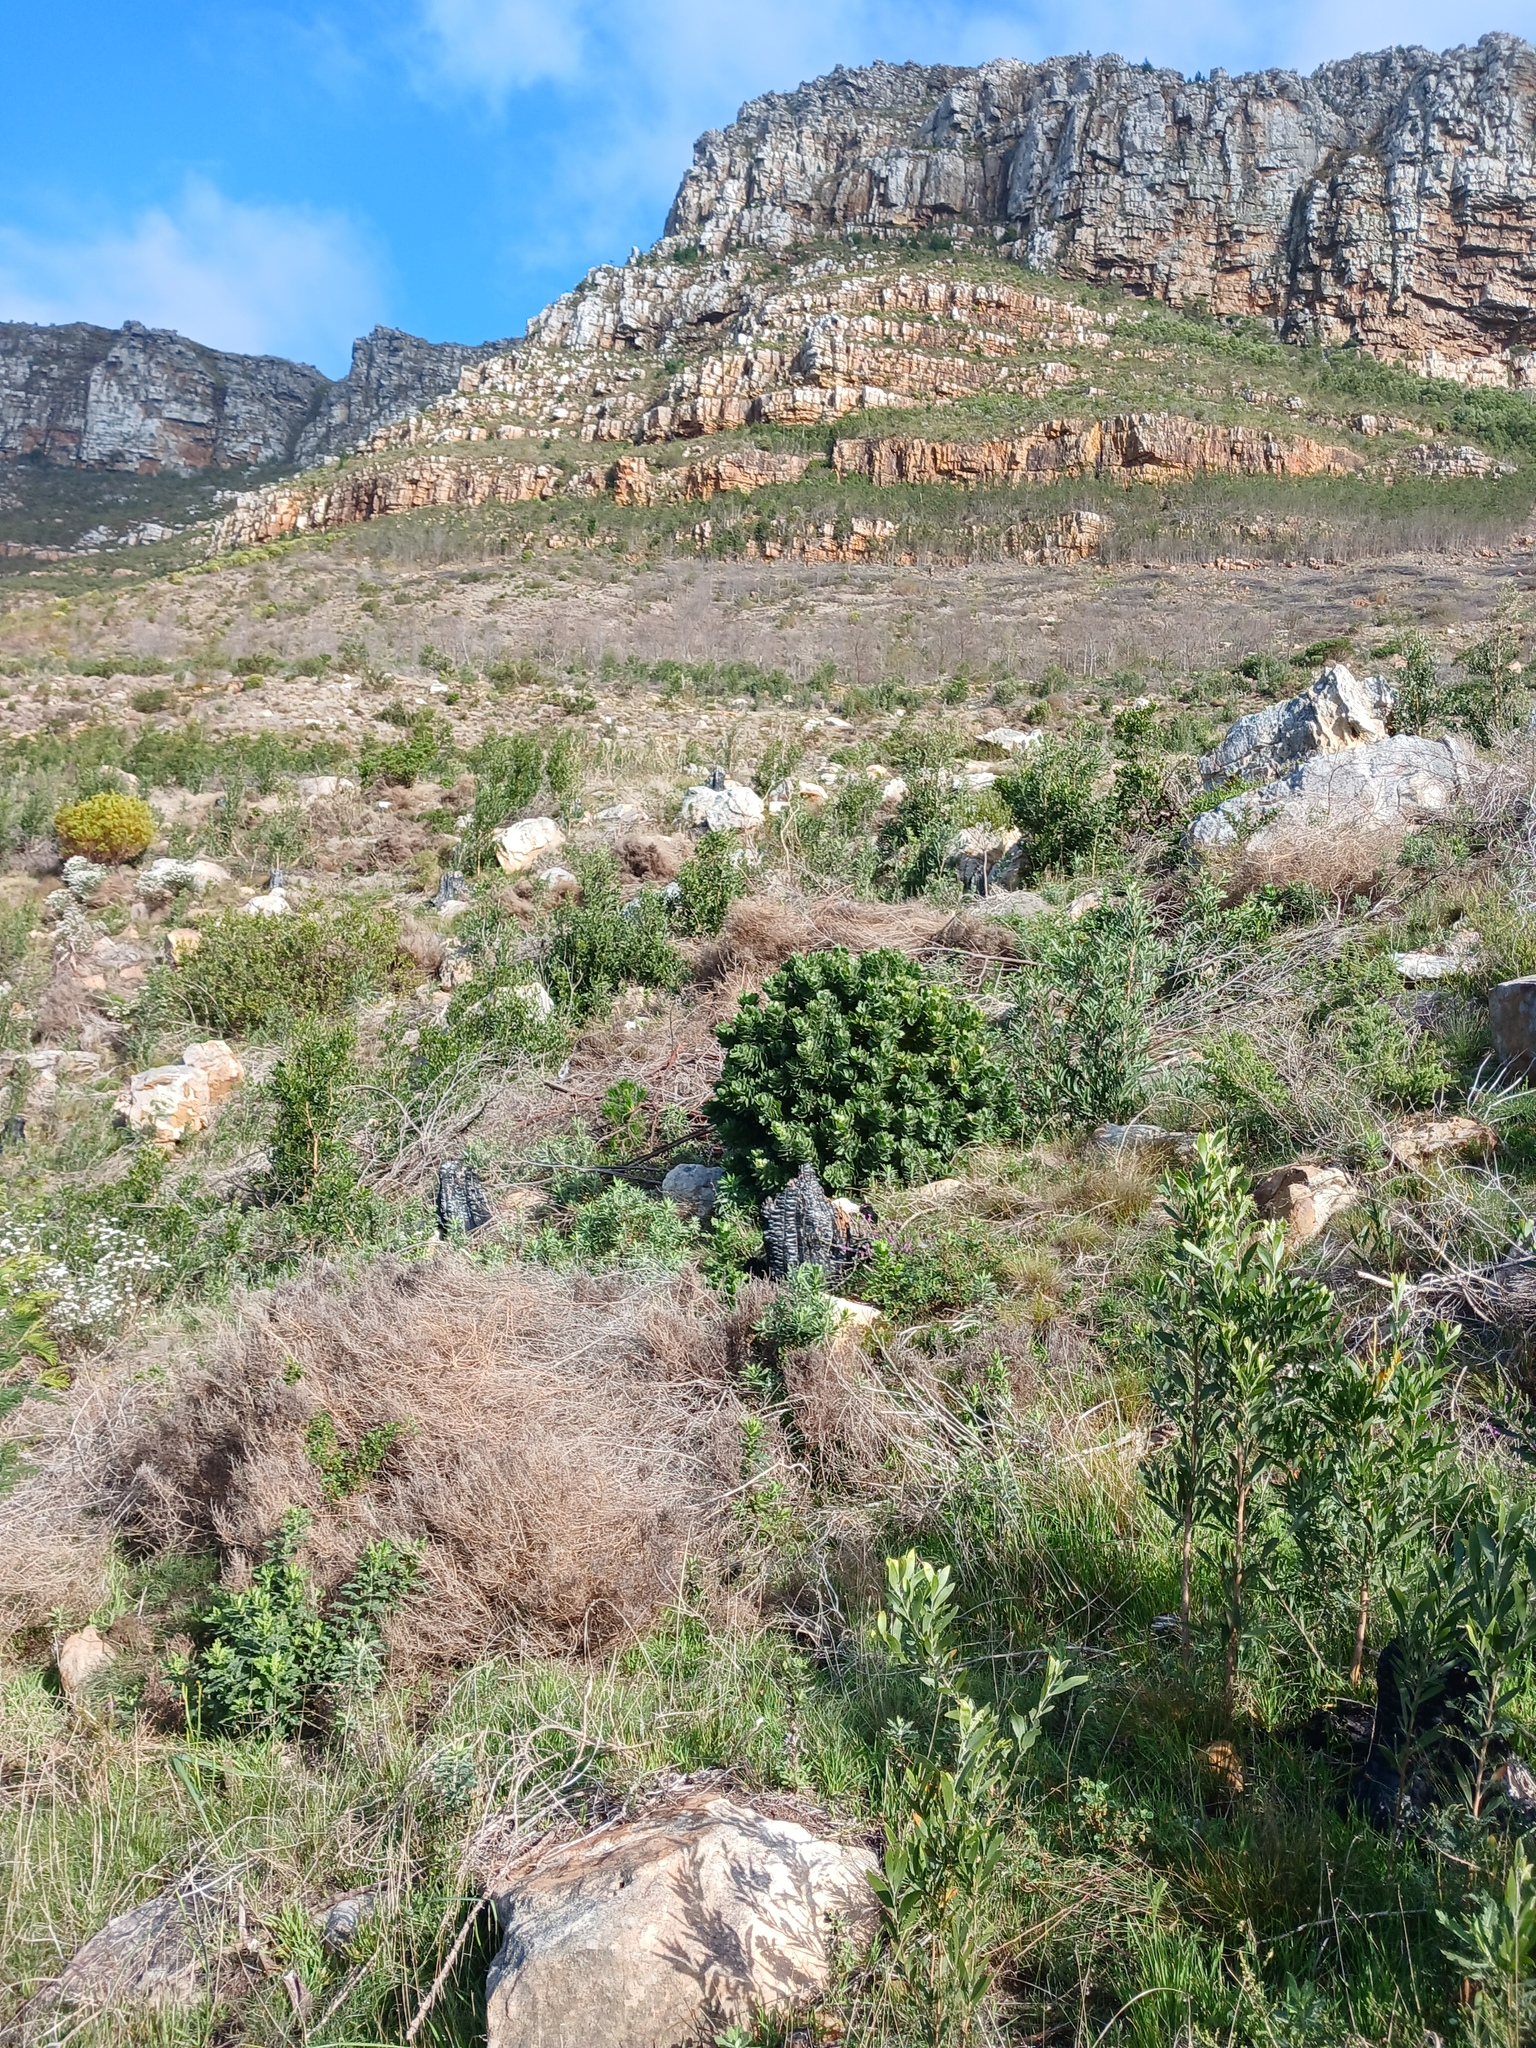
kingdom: Plantae
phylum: Tracheophyta
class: Magnoliopsida
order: Proteales
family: Proteaceae
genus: Leucospermum
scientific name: Leucospermum conocarpodendron
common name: Tree pincushion
